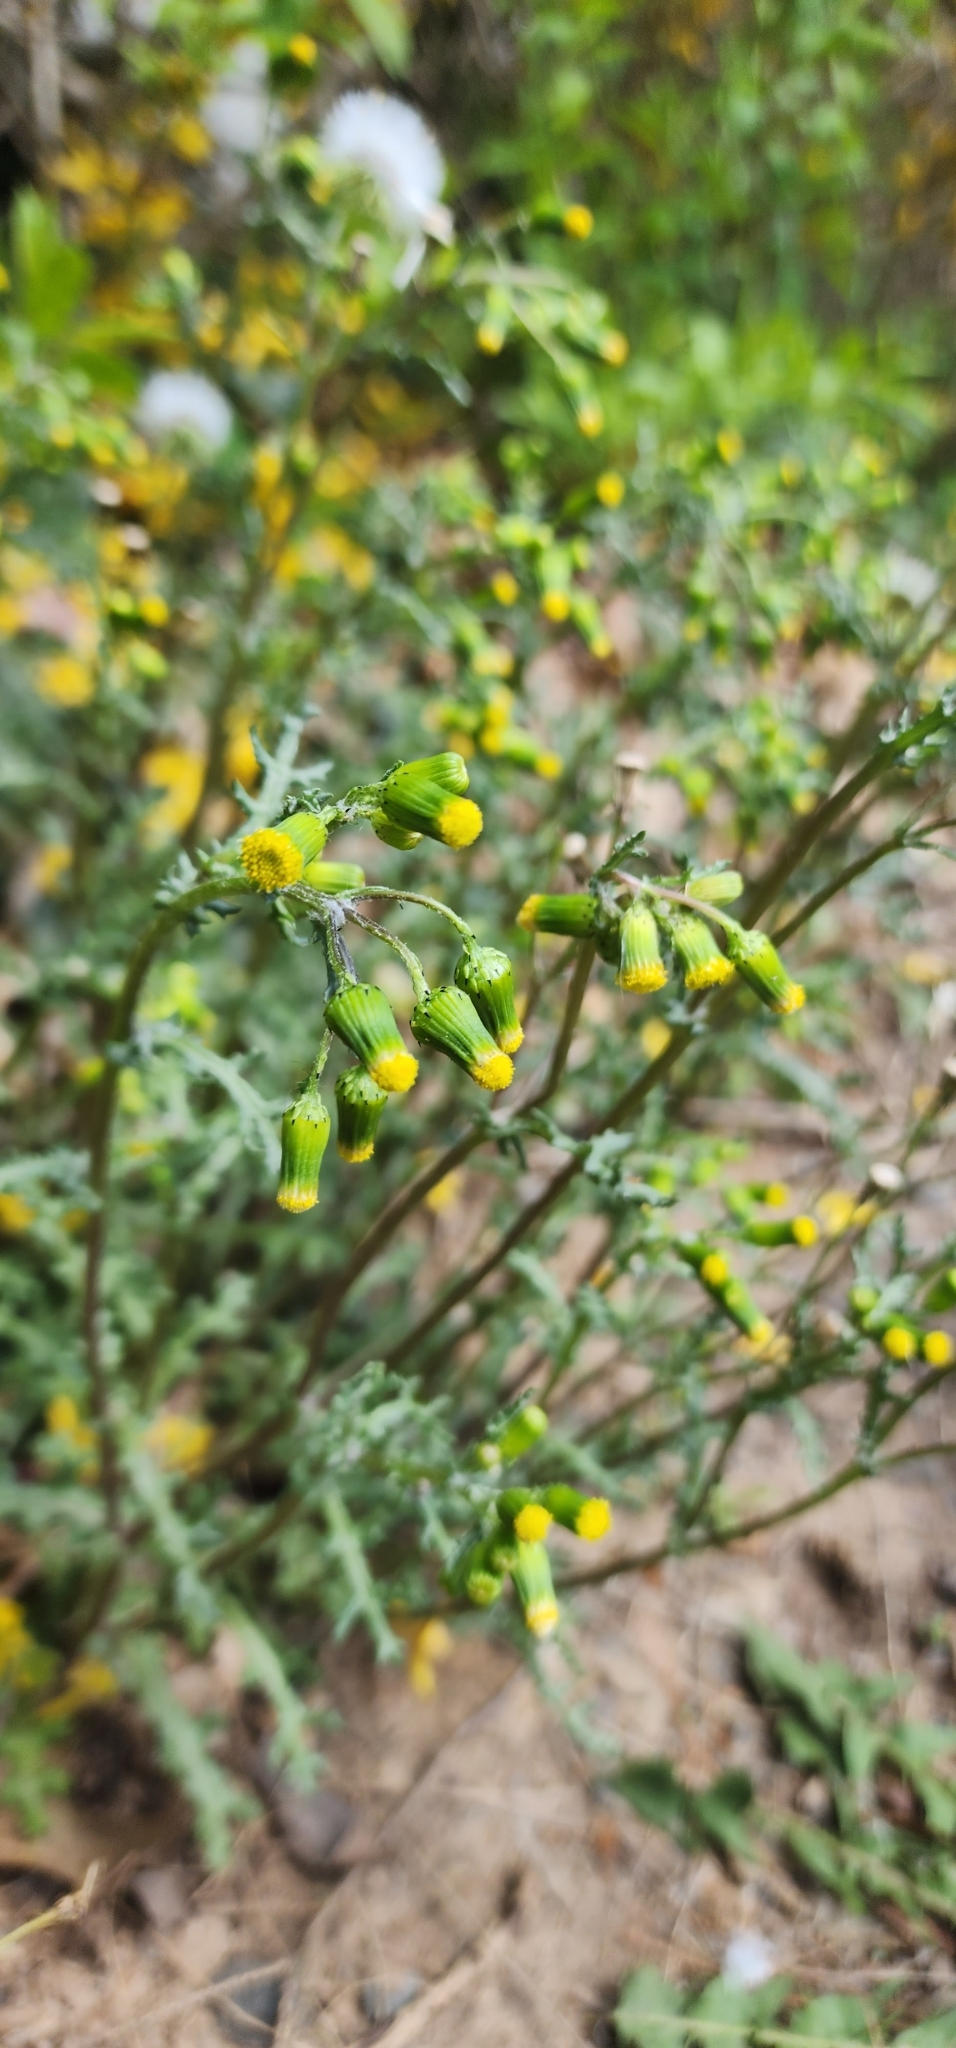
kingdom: Plantae
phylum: Tracheophyta
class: Magnoliopsida
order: Asterales
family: Asteraceae
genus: Senecio
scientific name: Senecio vulgaris
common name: Old-man-in-the-spring
